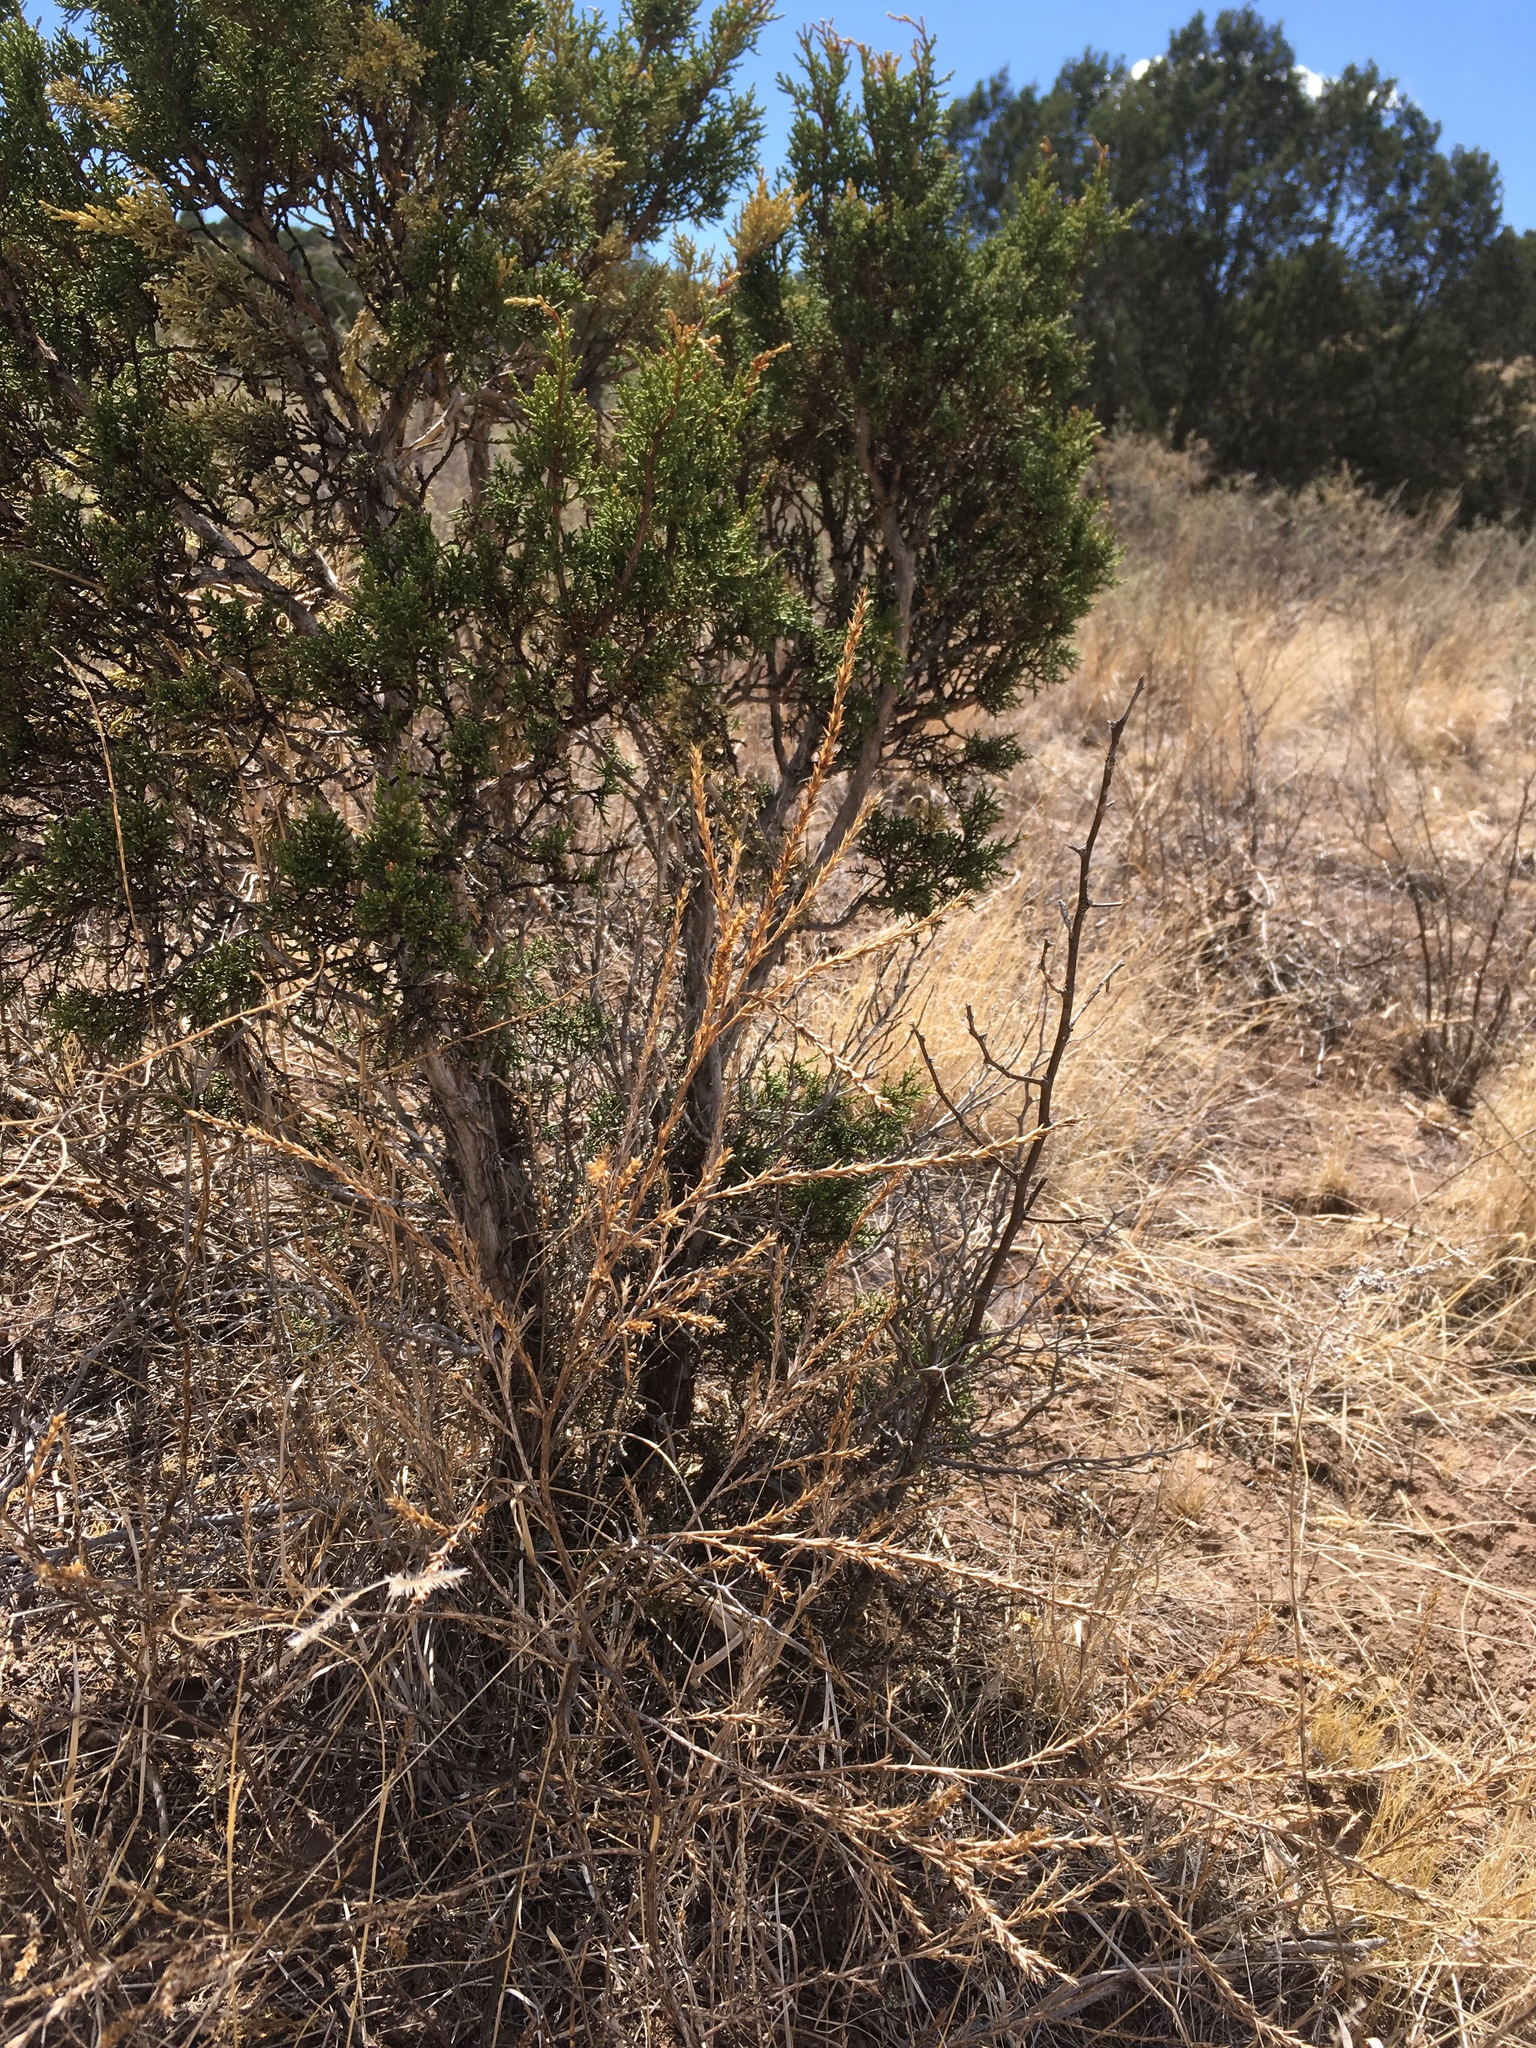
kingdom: Plantae
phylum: Tracheophyta
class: Magnoliopsida
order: Caryophyllales
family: Amaranthaceae
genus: Salsola
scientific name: Salsola collina
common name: Tumbleweed
